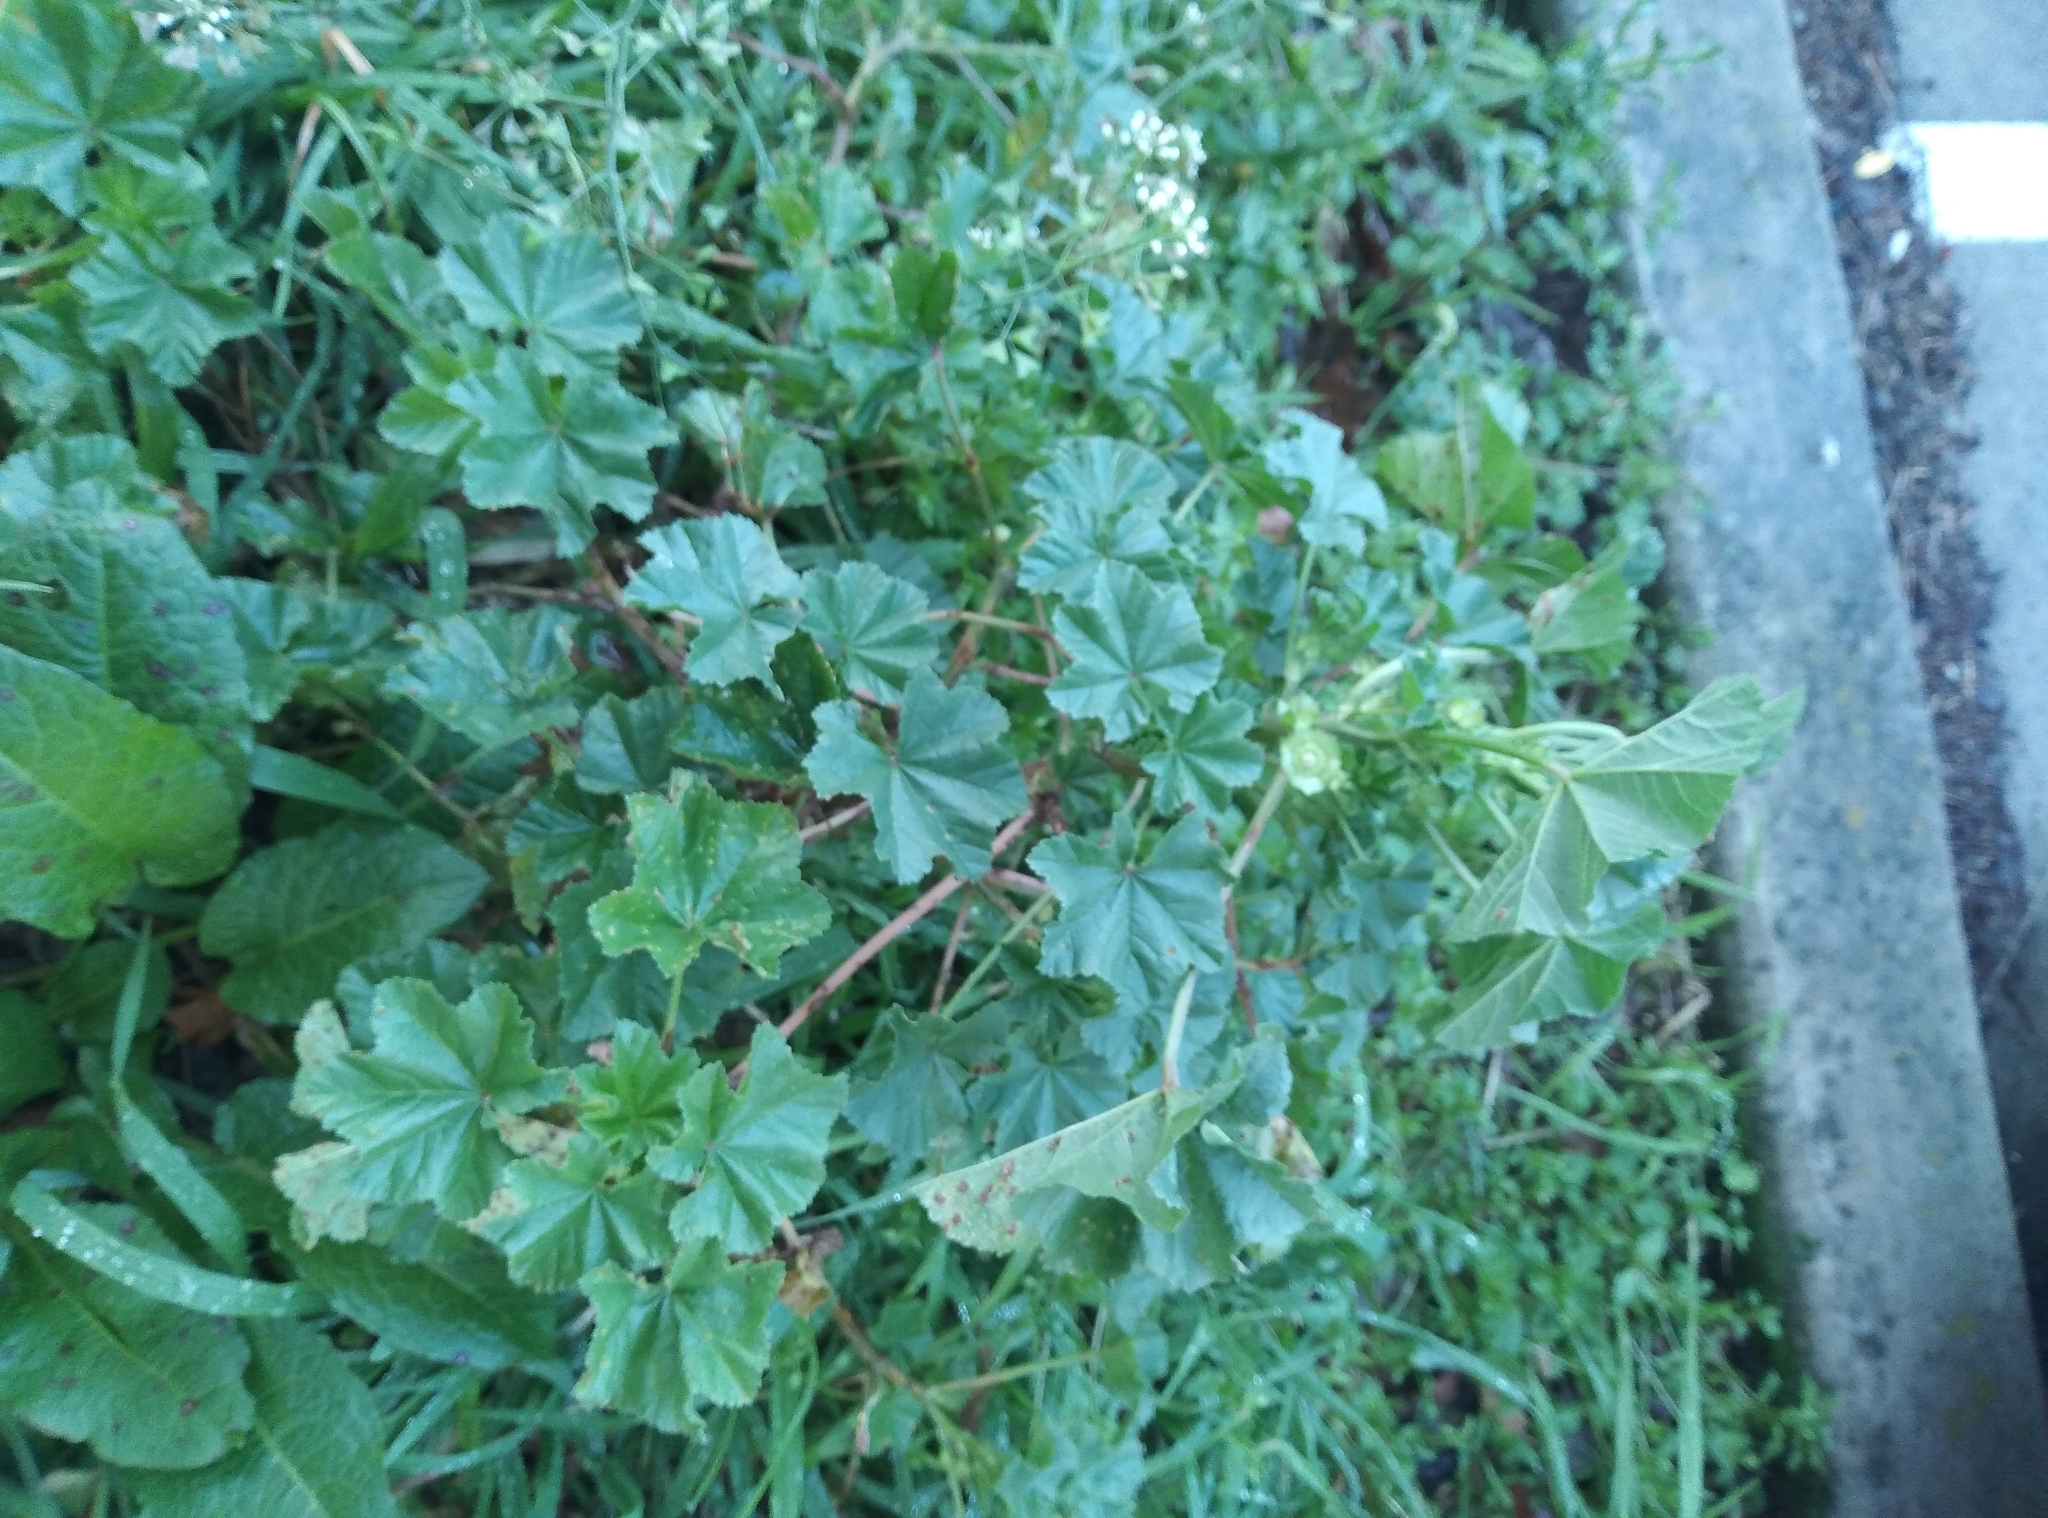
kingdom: Plantae
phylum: Tracheophyta
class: Magnoliopsida
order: Malvales
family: Malvaceae
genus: Malva
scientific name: Malva parviflora
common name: Least mallow
